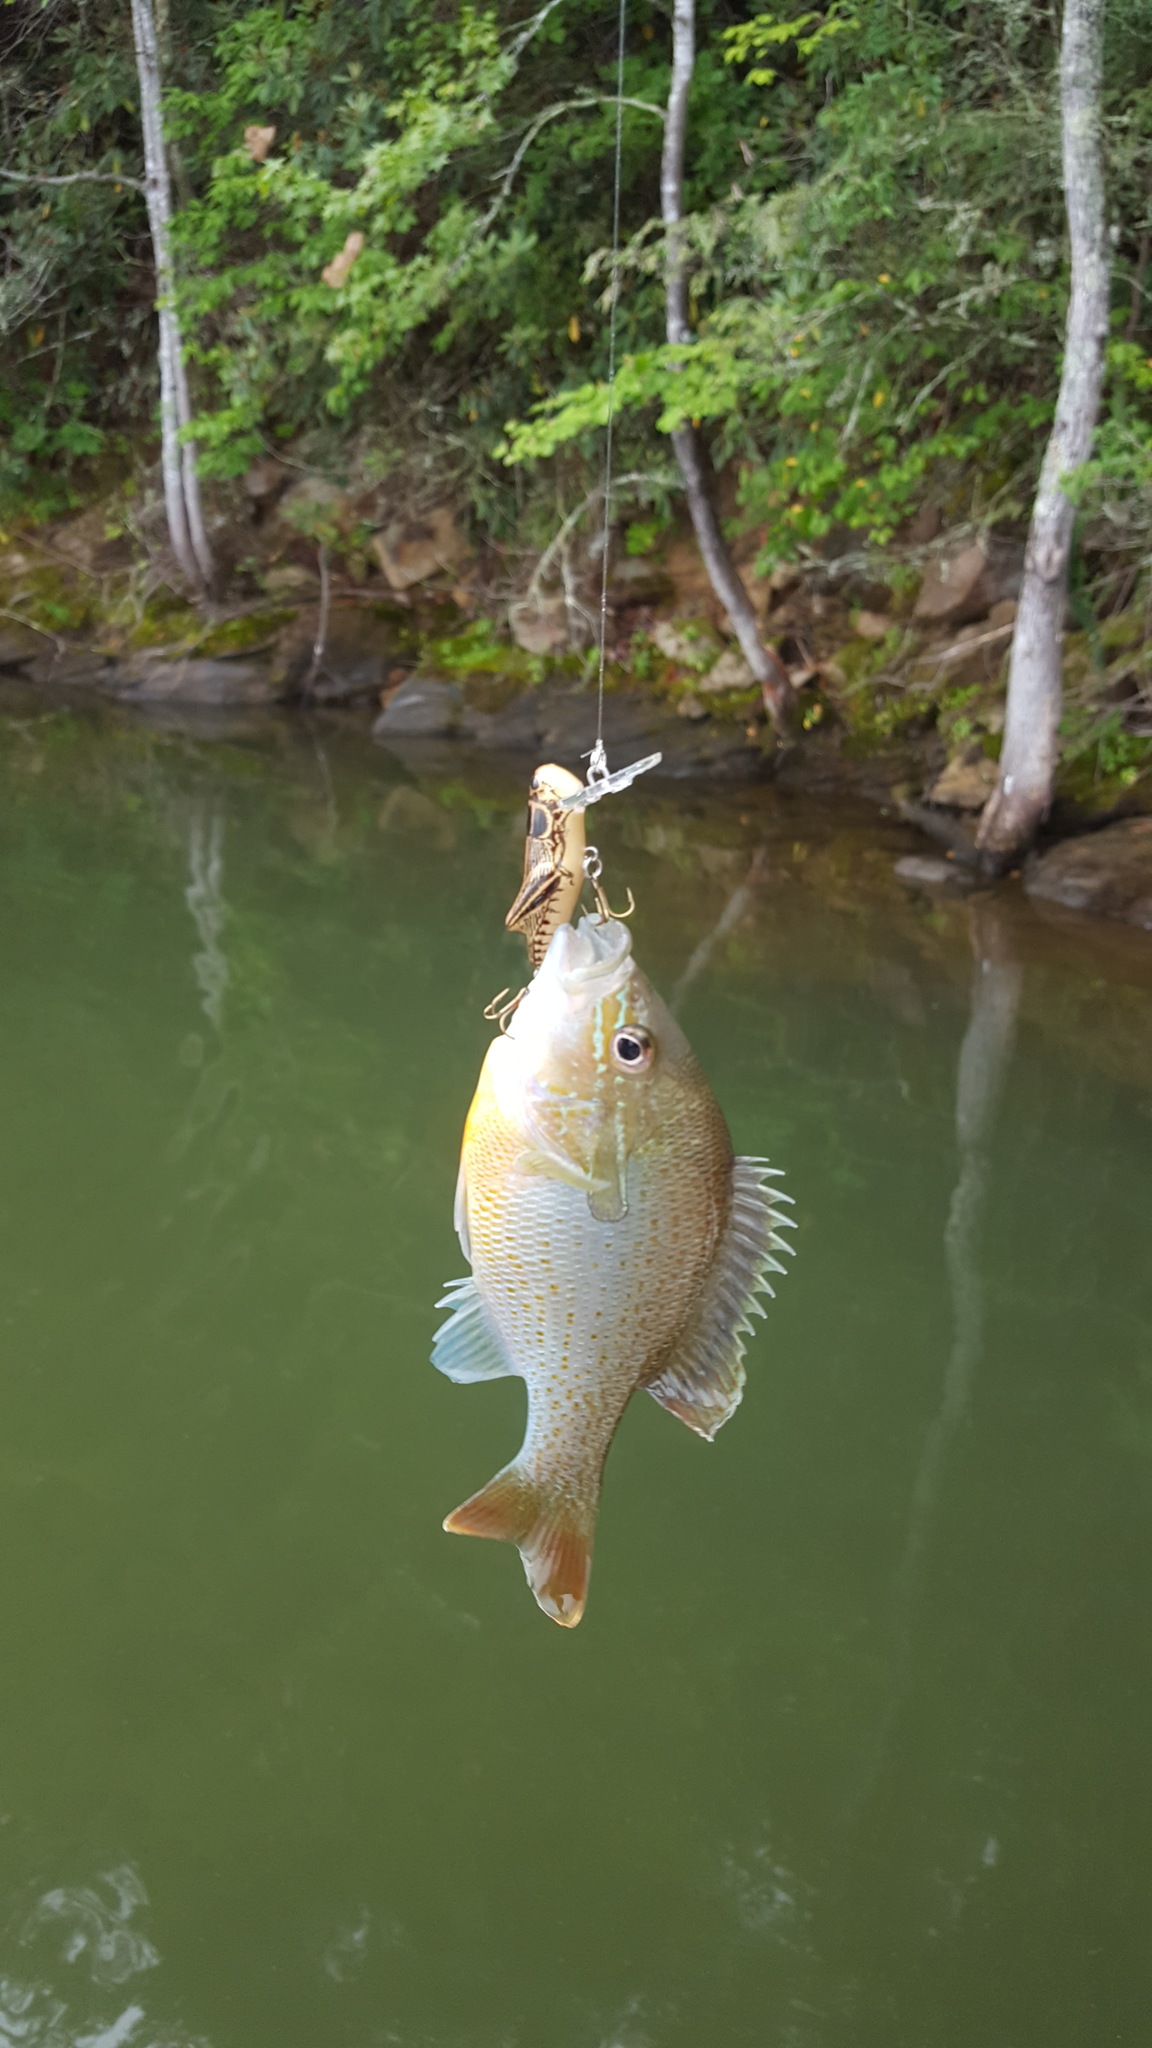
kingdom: Animalia
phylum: Chordata
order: Perciformes
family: Centrarchidae
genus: Lepomis
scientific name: Lepomis auritus
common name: Redbreast sunfish
